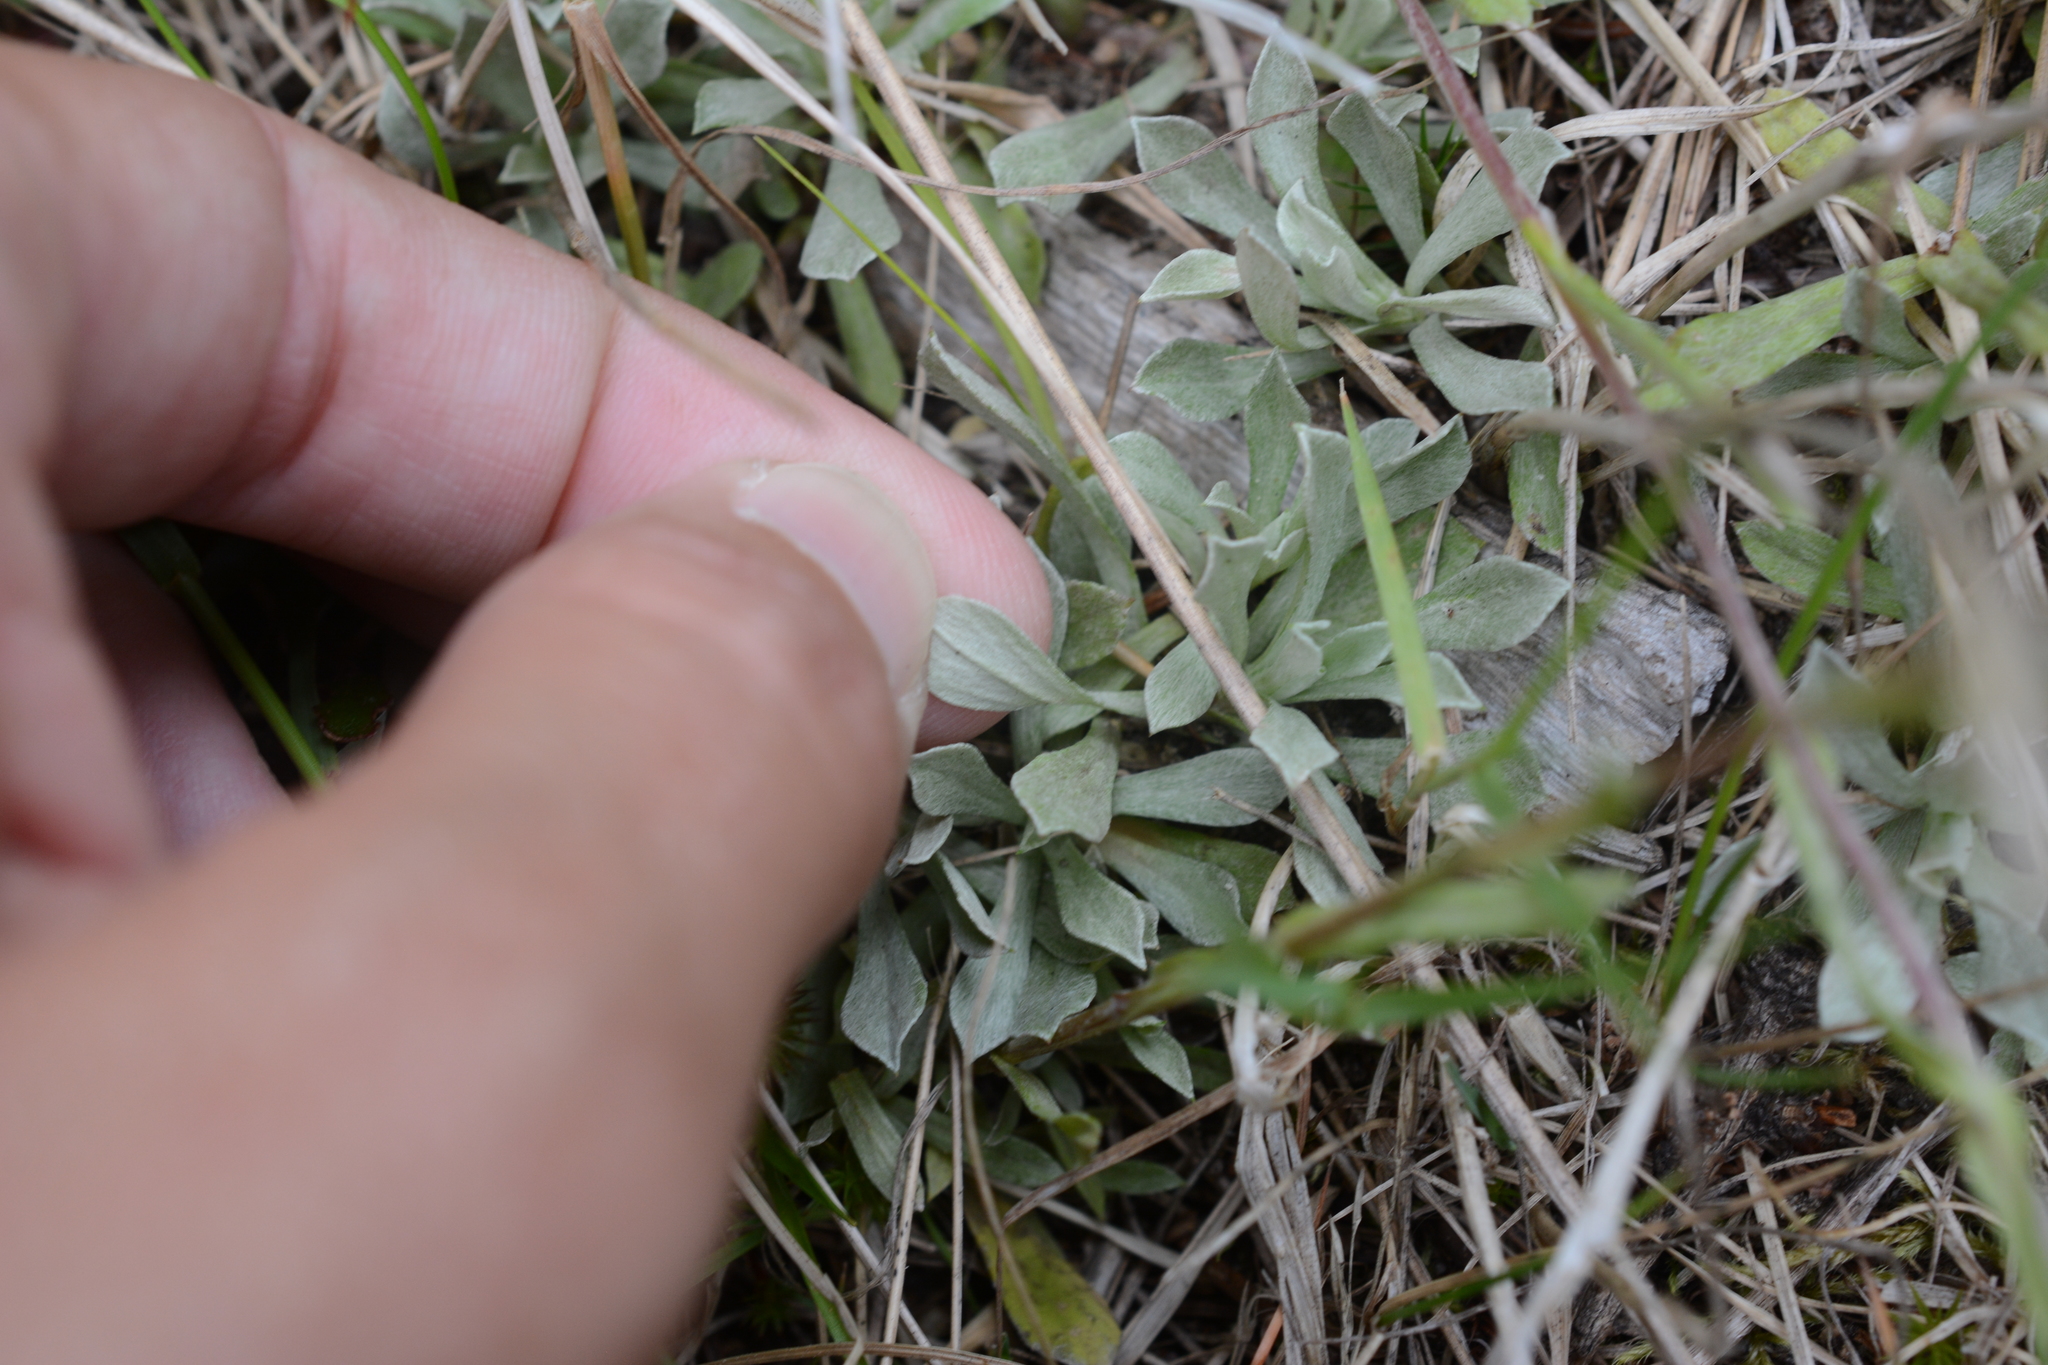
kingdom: Plantae
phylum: Tracheophyta
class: Magnoliopsida
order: Asterales
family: Asteraceae
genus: Antennaria
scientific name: Antennaria rosea
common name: Rosy pussytoes
